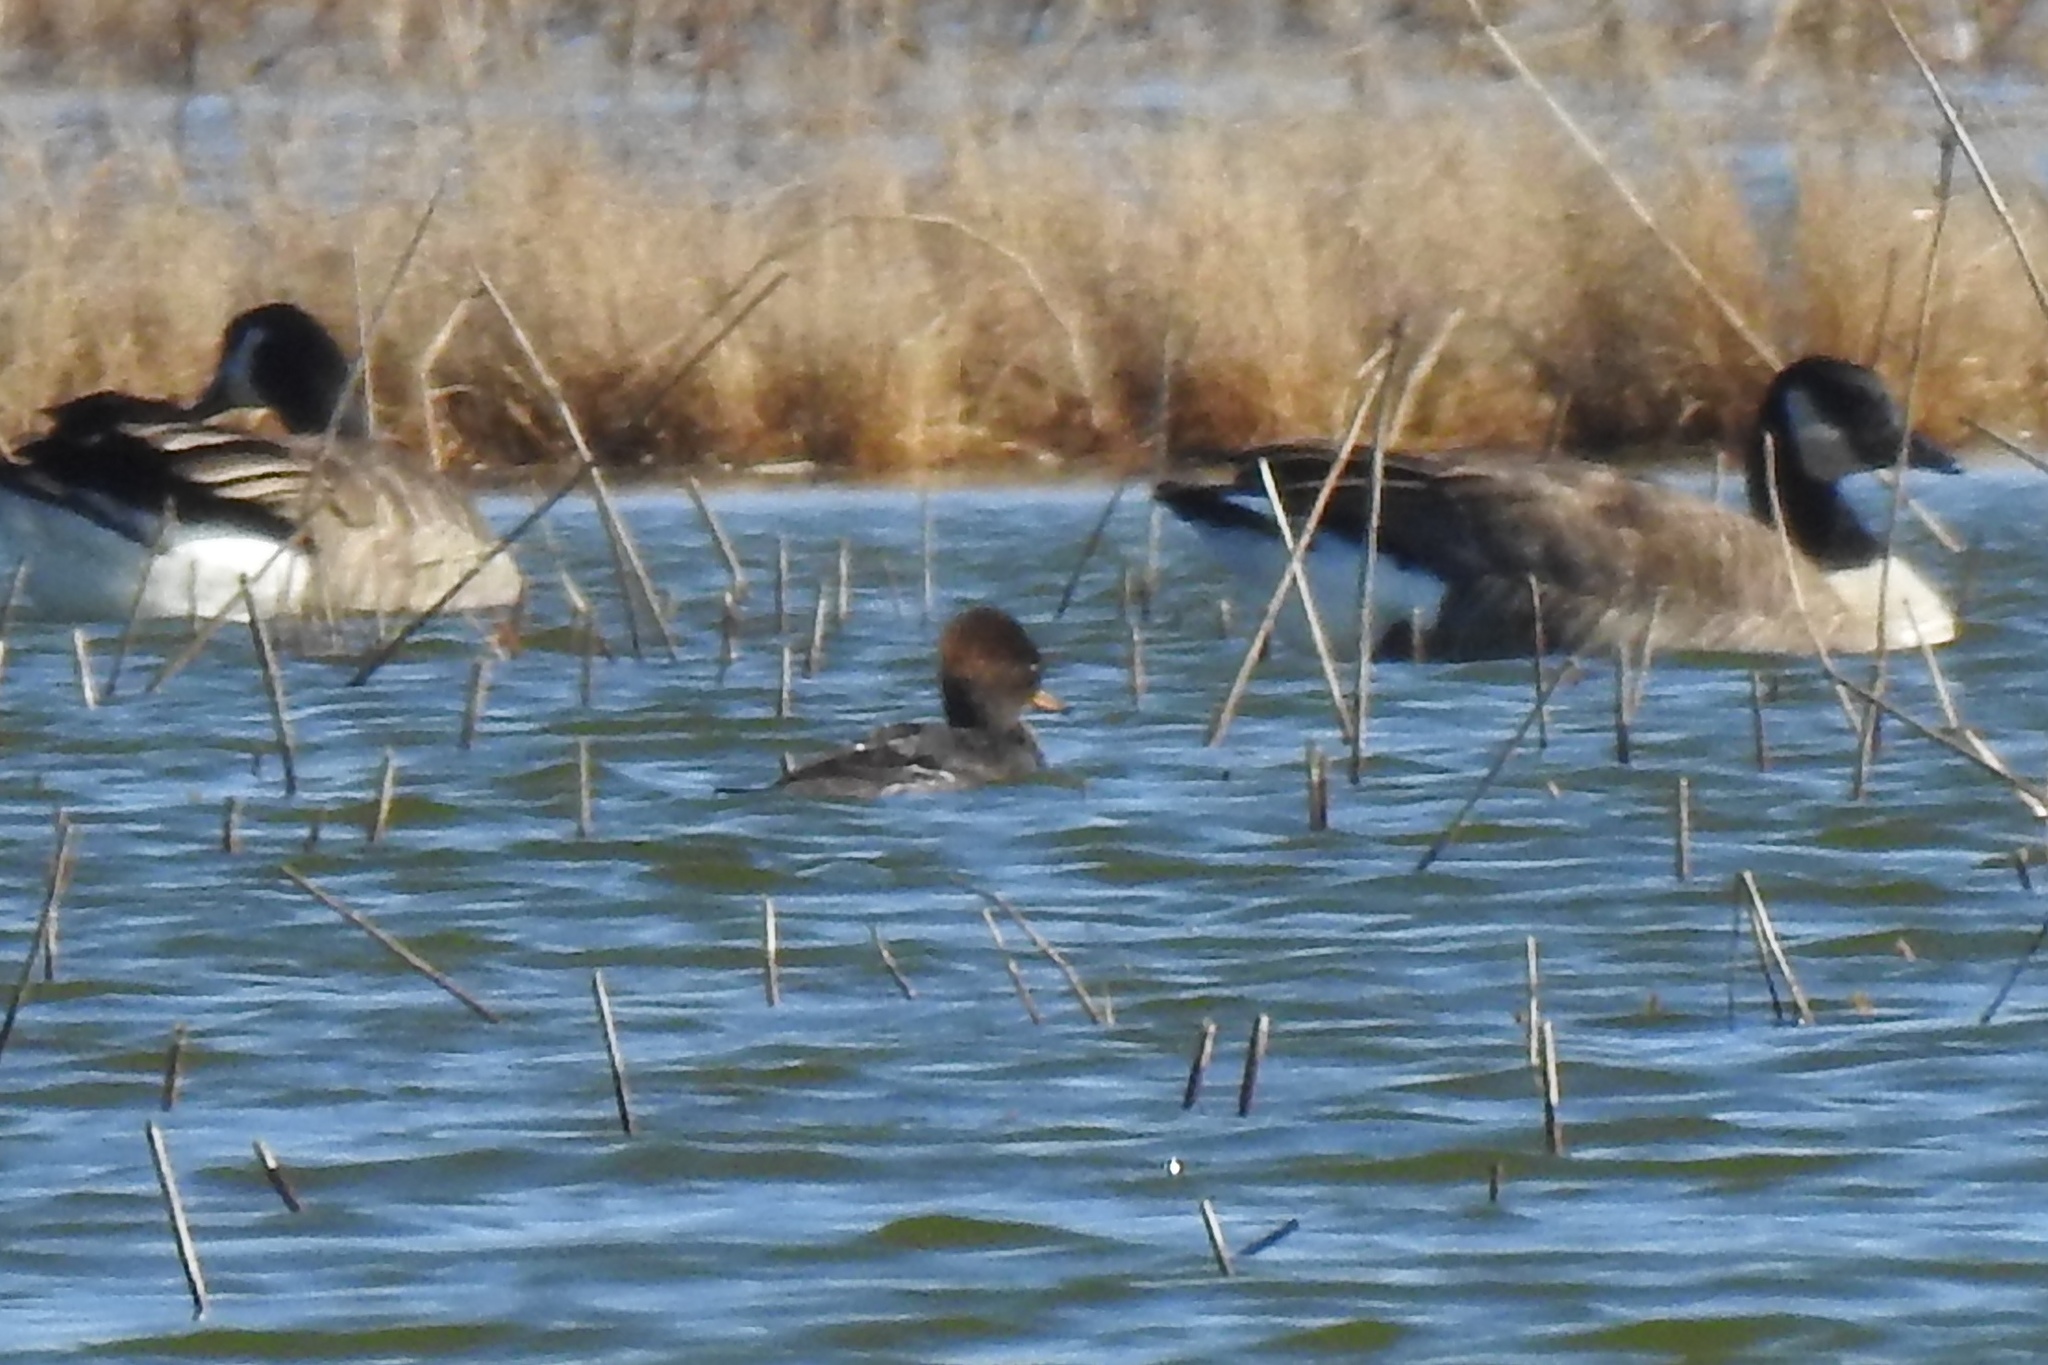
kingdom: Animalia
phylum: Chordata
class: Aves
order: Anseriformes
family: Anatidae
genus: Lophodytes
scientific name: Lophodytes cucullatus
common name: Hooded merganser
